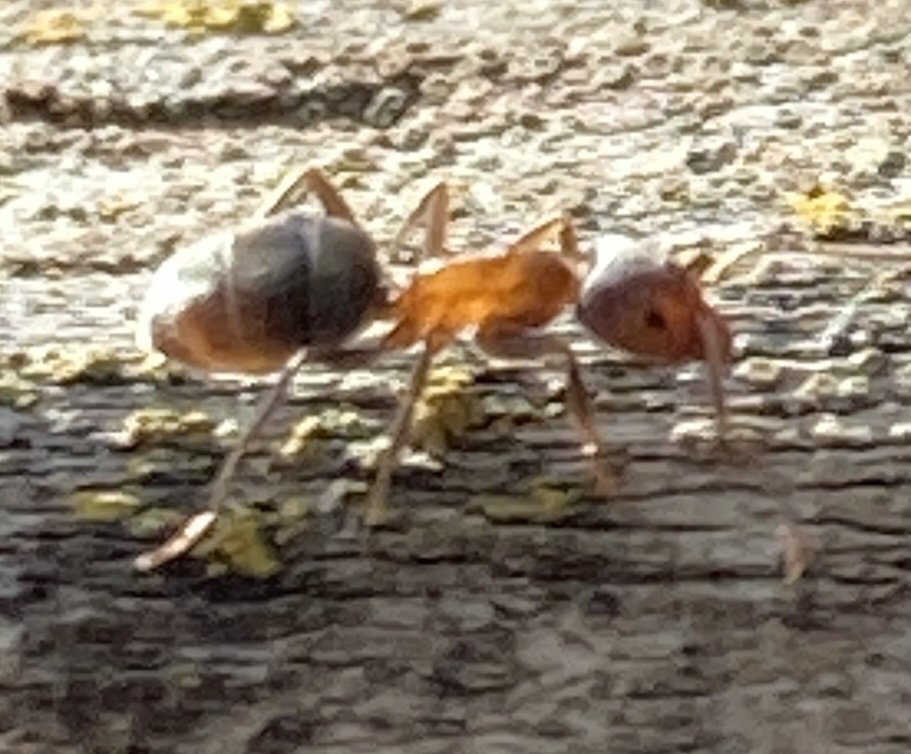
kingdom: Animalia
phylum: Arthropoda
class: Insecta
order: Hymenoptera
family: Formicidae
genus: Liometopum
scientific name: Liometopum occidentale
